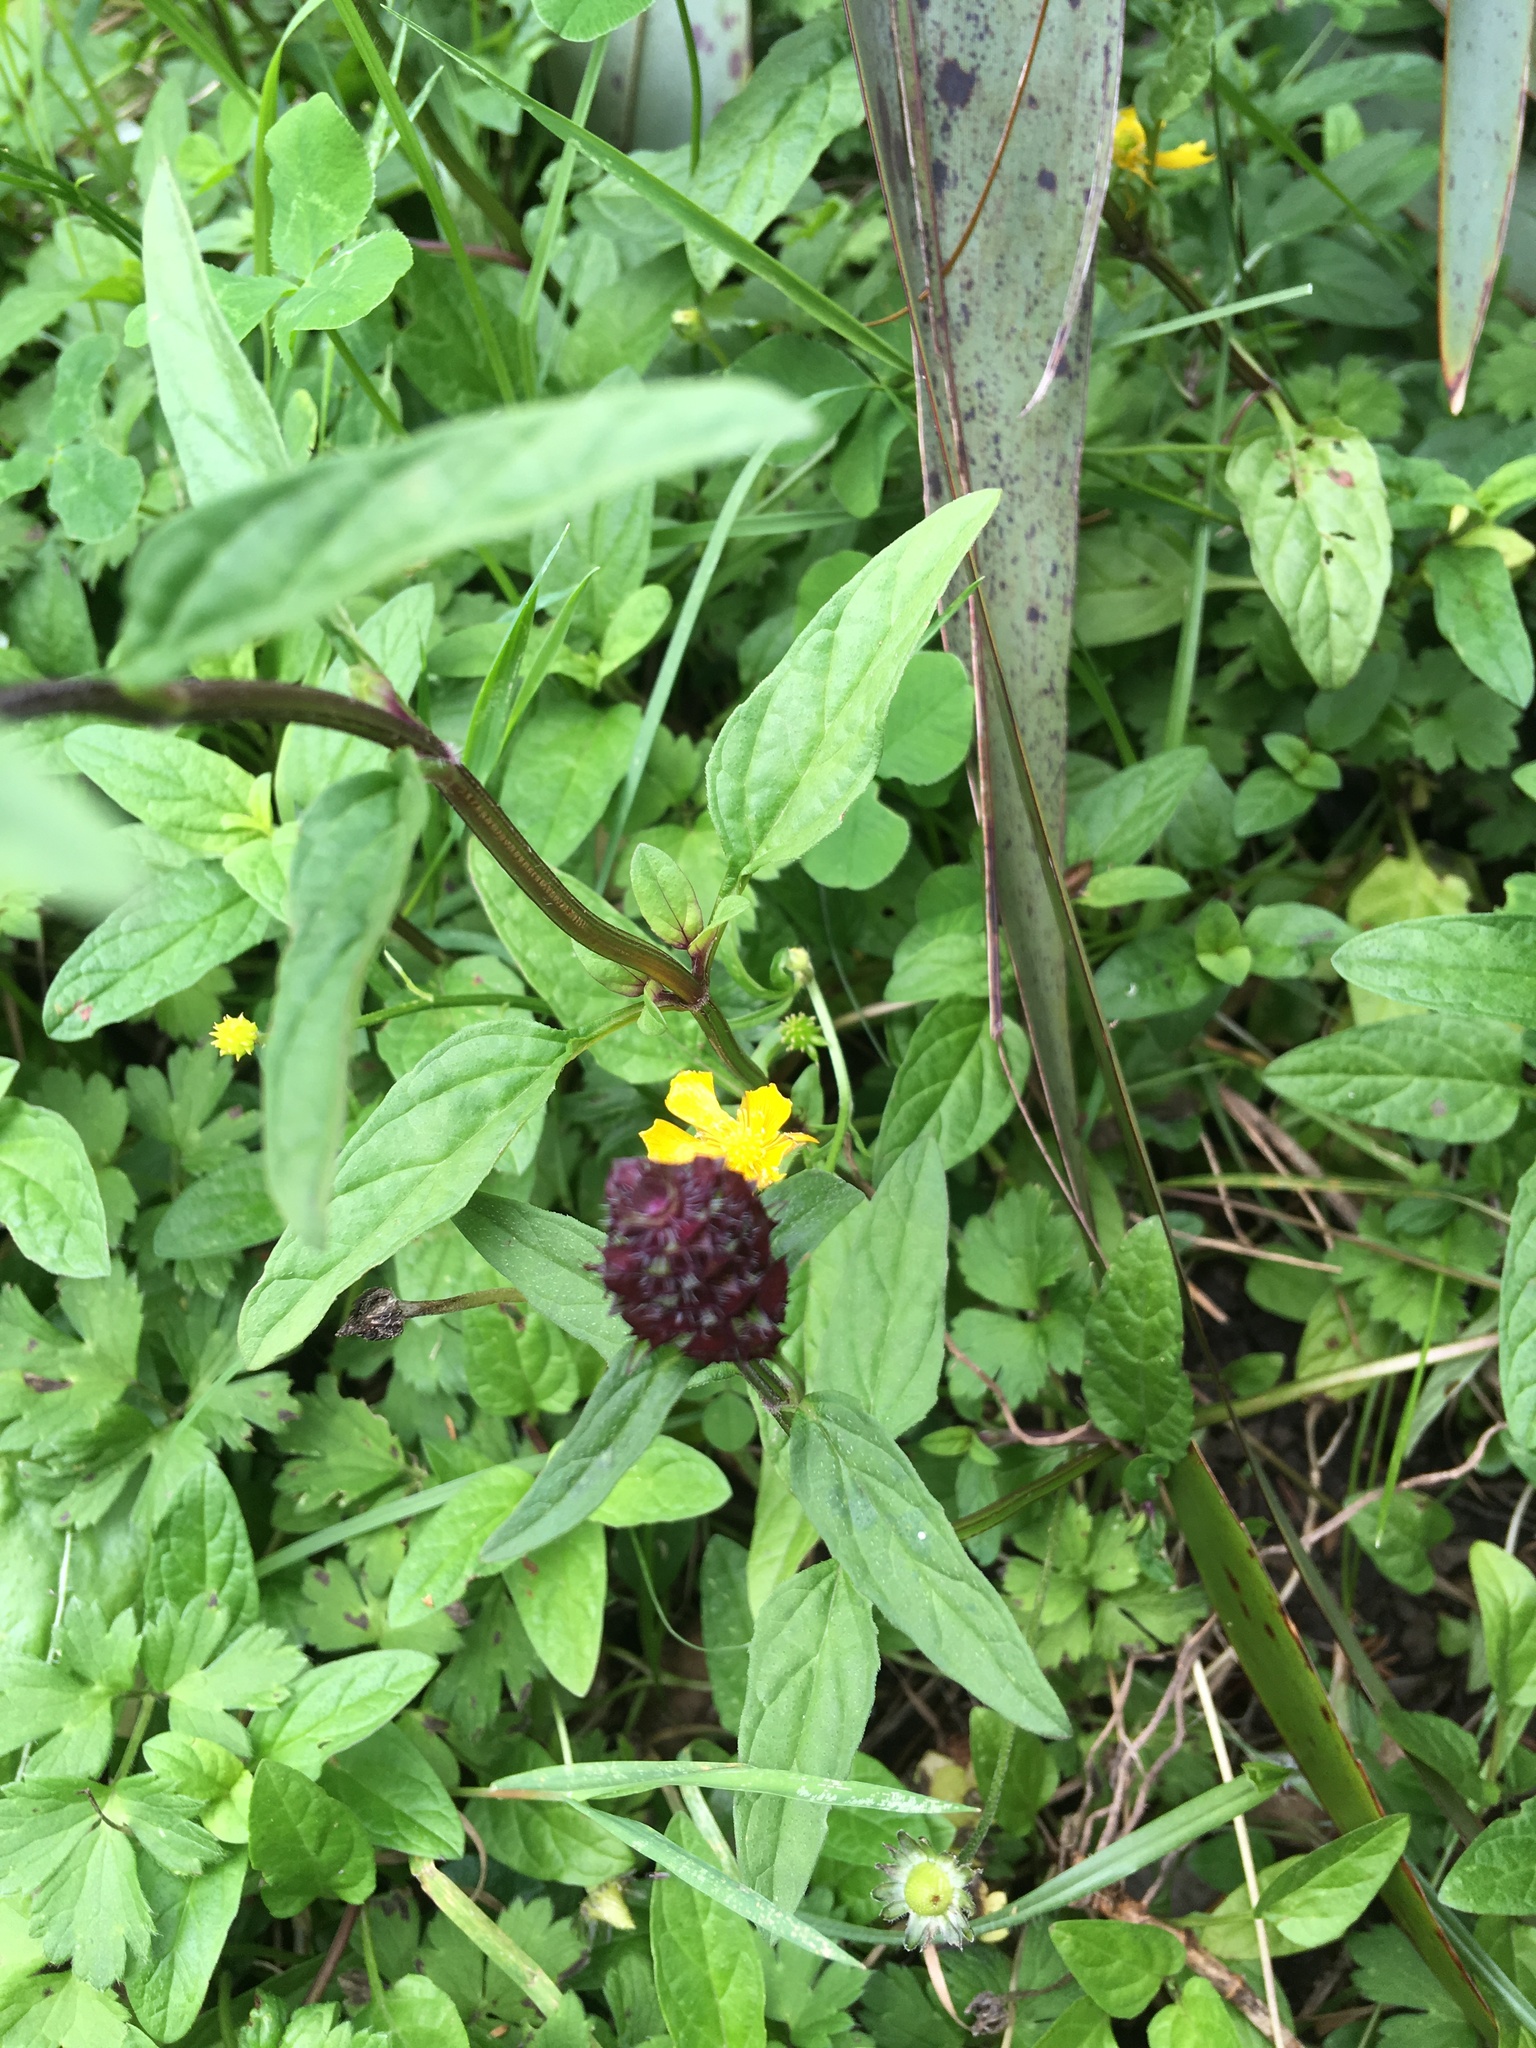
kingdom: Plantae
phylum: Tracheophyta
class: Magnoliopsida
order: Lamiales
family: Lamiaceae
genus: Prunella
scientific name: Prunella vulgaris
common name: Heal-all
